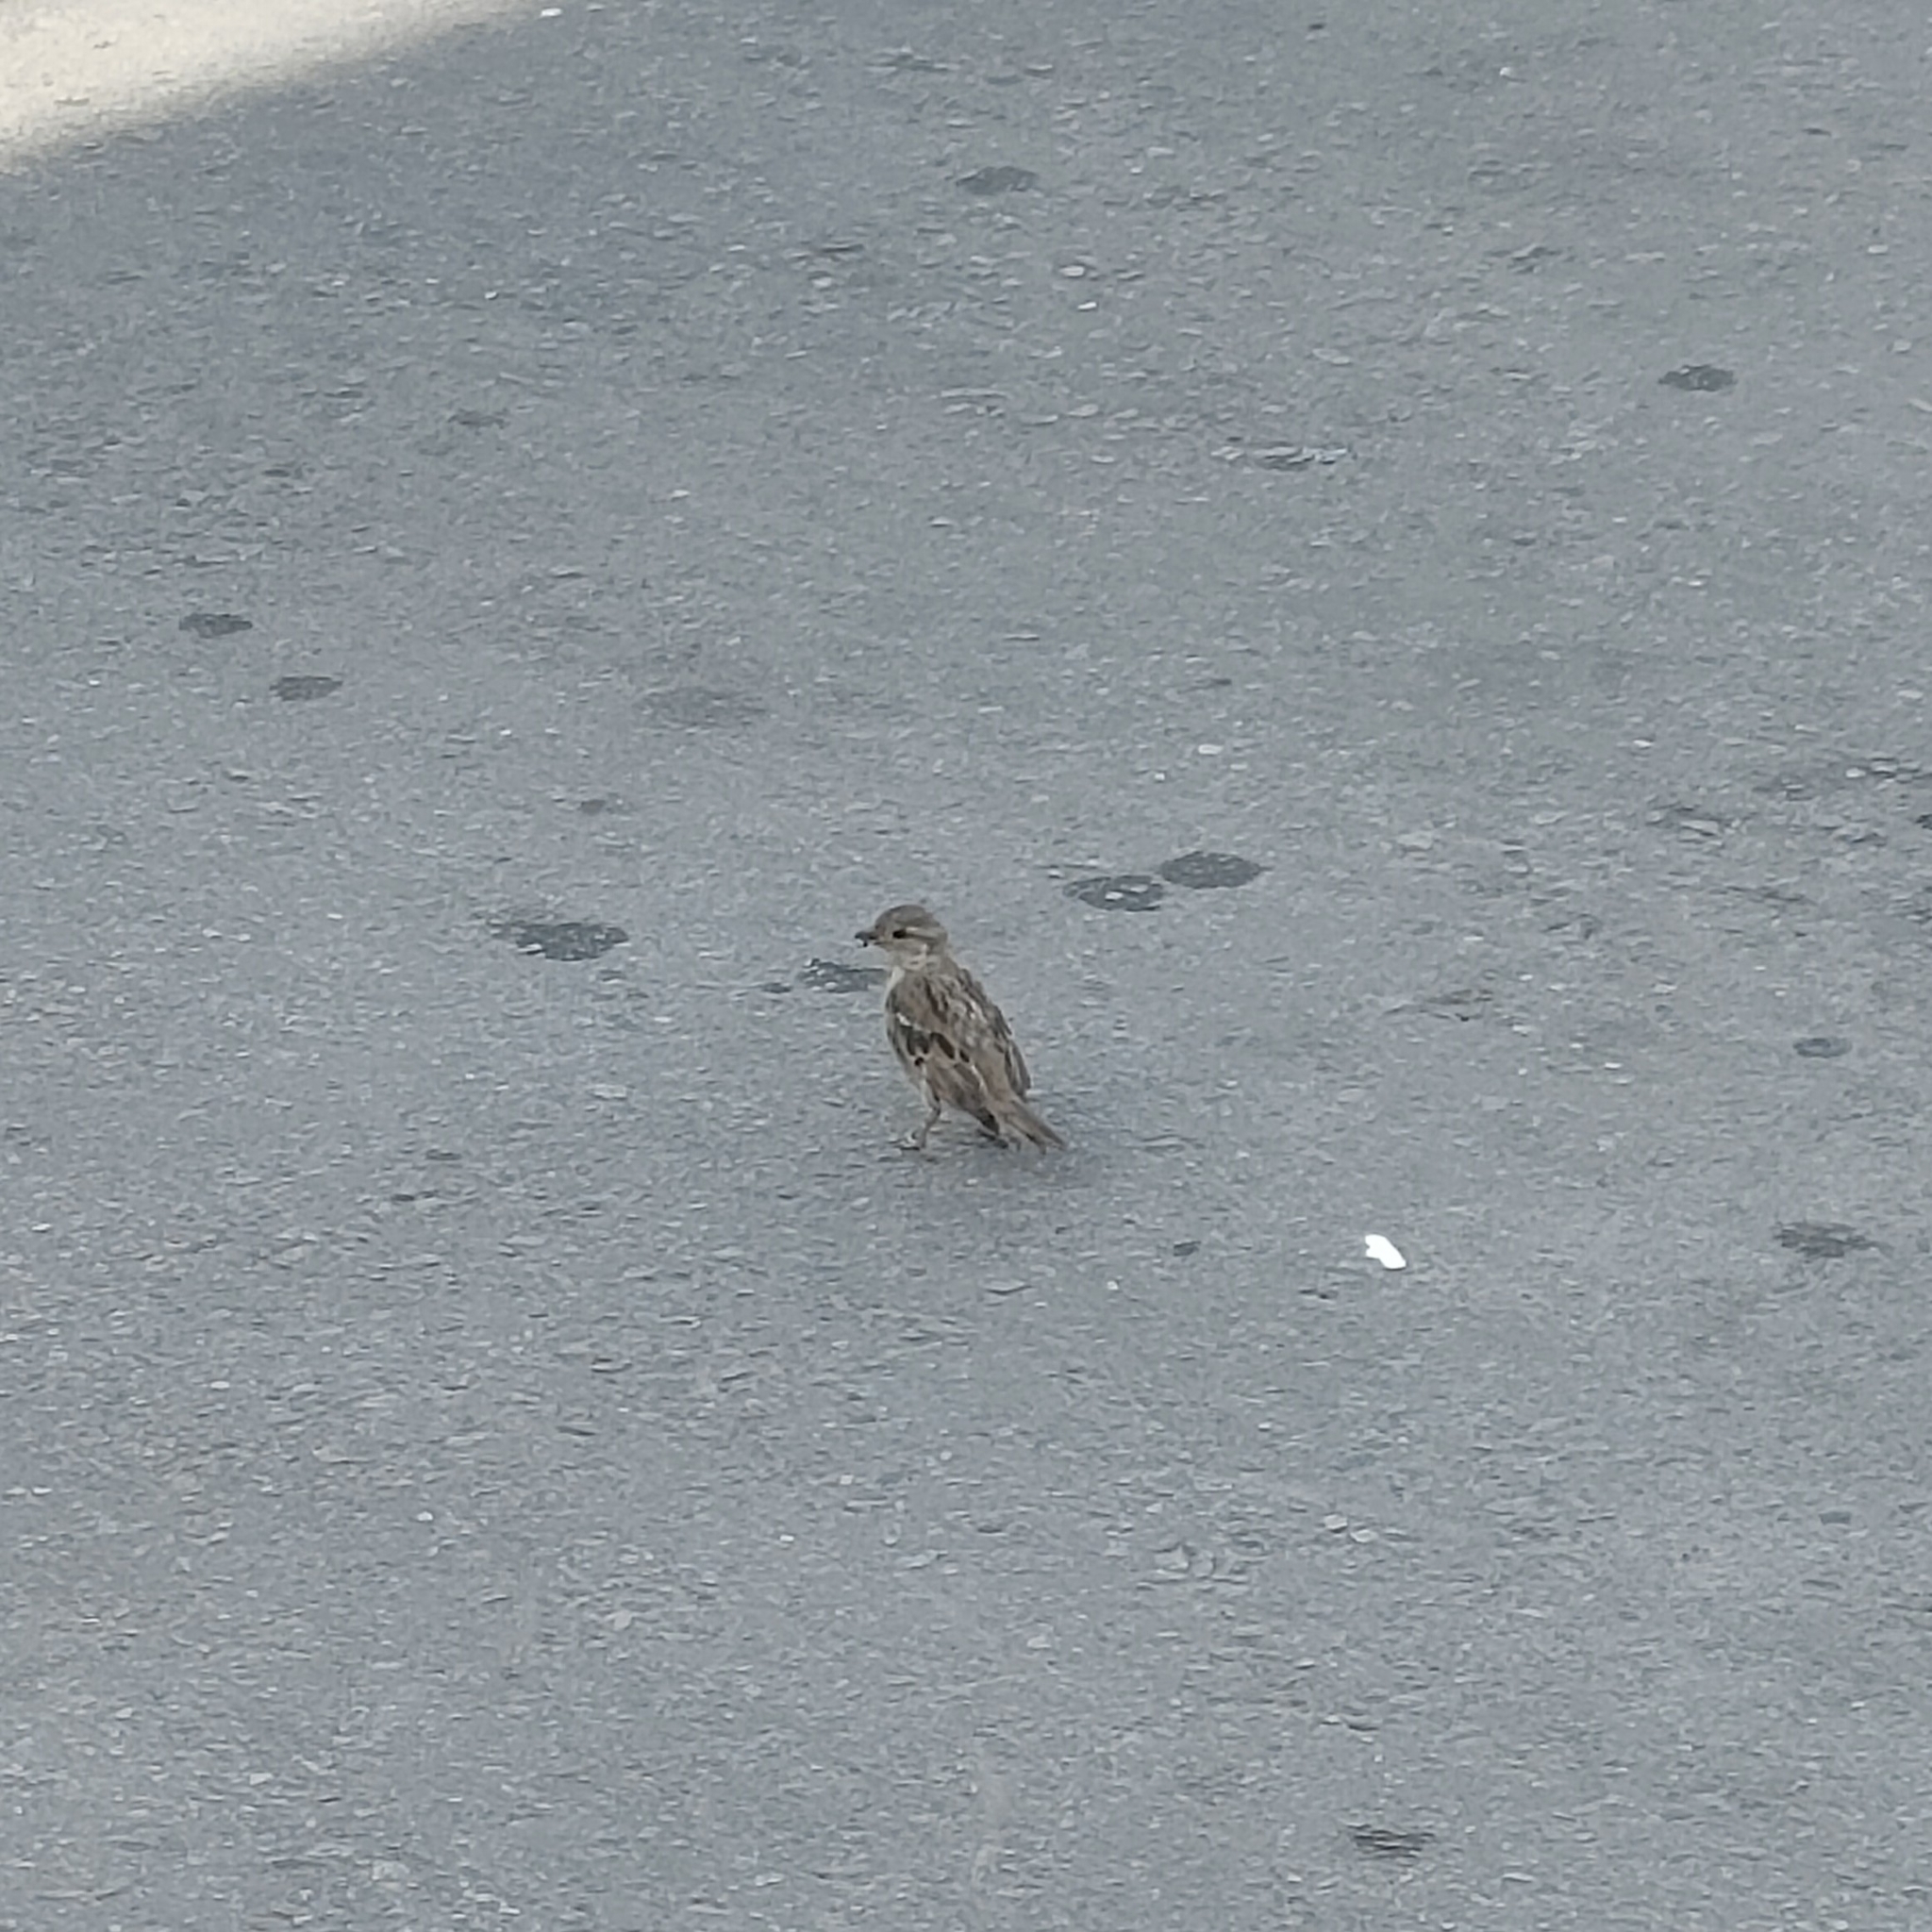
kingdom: Animalia
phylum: Chordata
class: Aves
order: Passeriformes
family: Passeridae
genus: Passer
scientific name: Passer domesticus
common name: House sparrow
